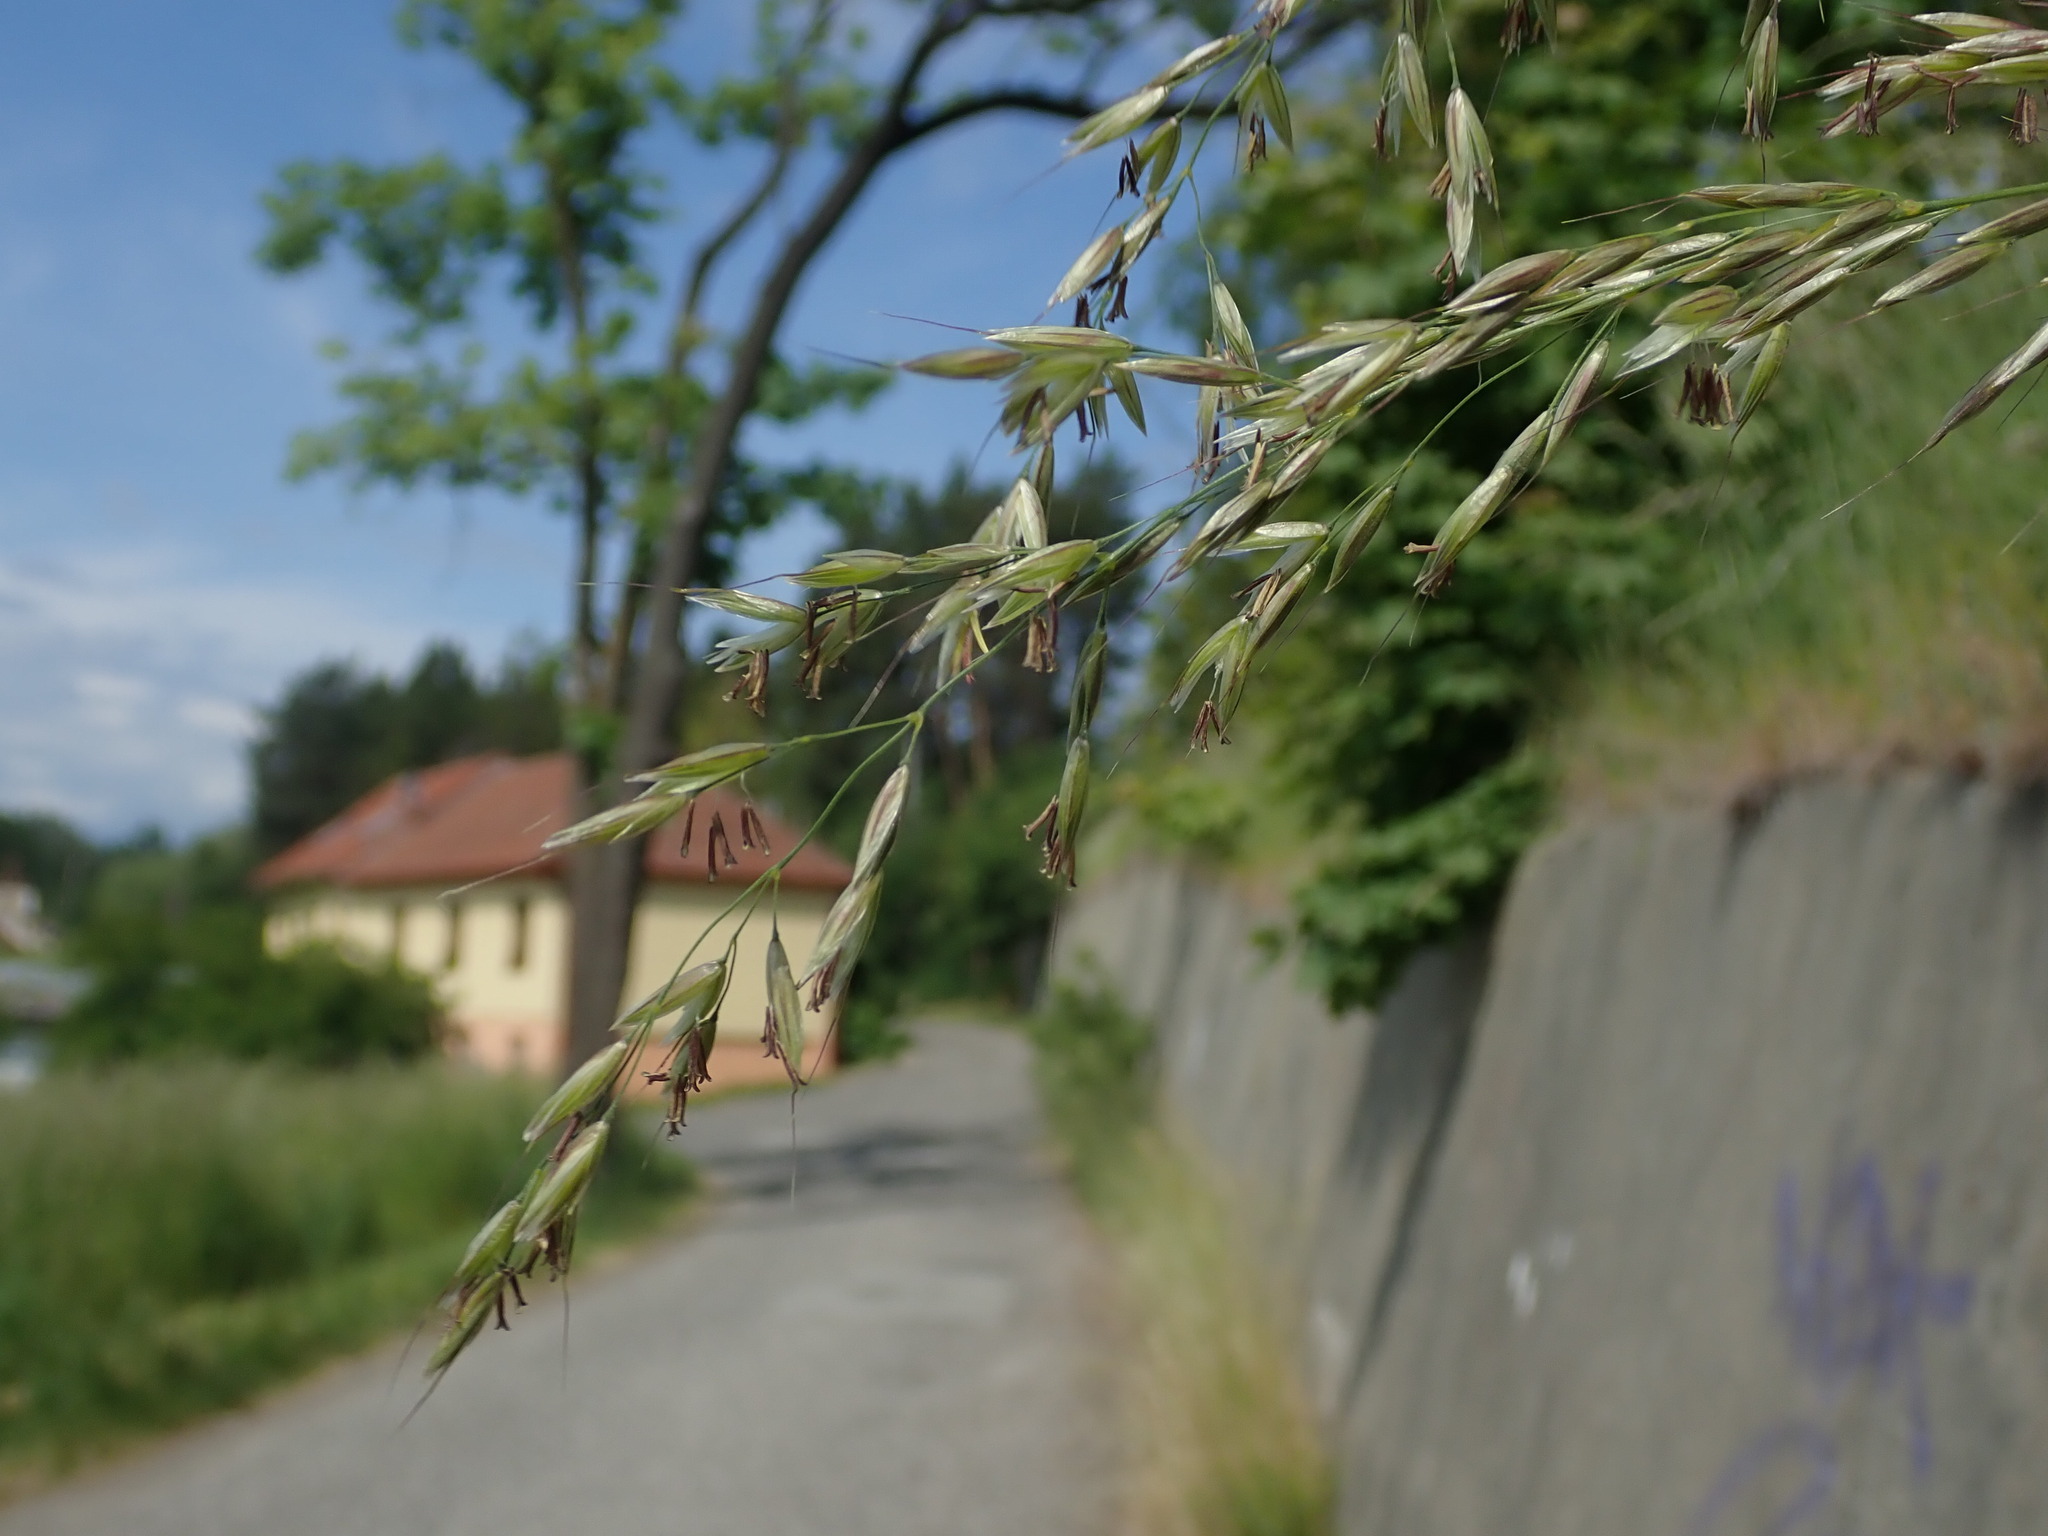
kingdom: Plantae
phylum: Tracheophyta
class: Liliopsida
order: Poales
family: Poaceae
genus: Arrhenatherum
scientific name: Arrhenatherum elatius
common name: Tall oatgrass
